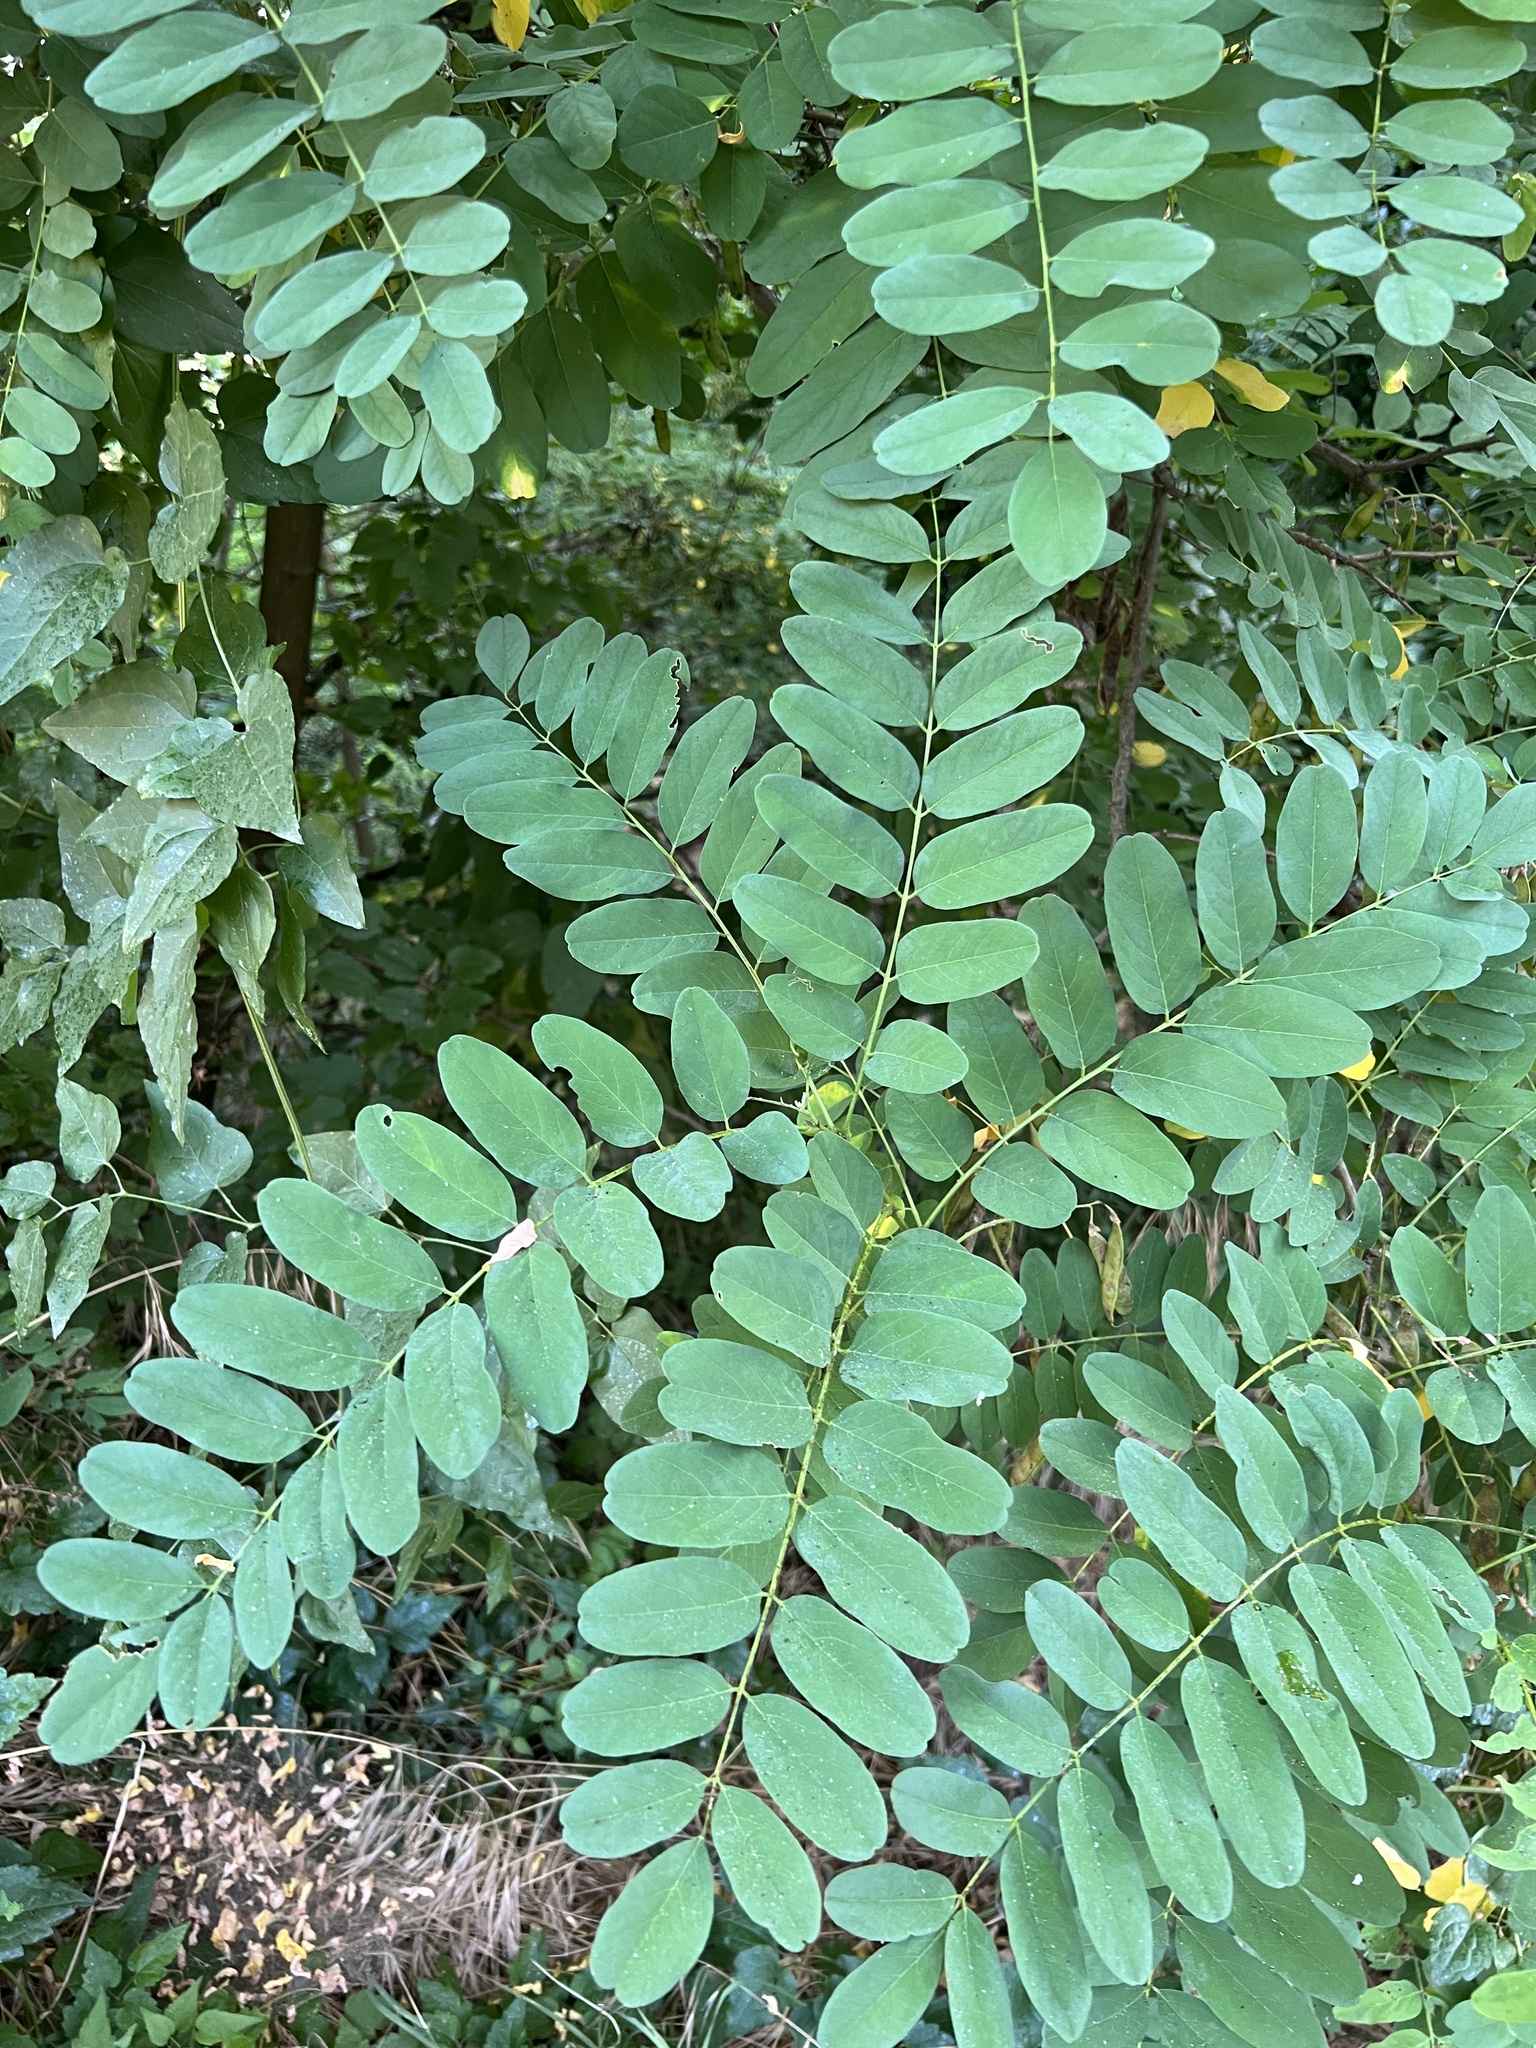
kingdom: Plantae
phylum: Tracheophyta
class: Magnoliopsida
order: Fabales
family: Fabaceae
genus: Robinia
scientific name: Robinia pseudoacacia
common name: Black locust
